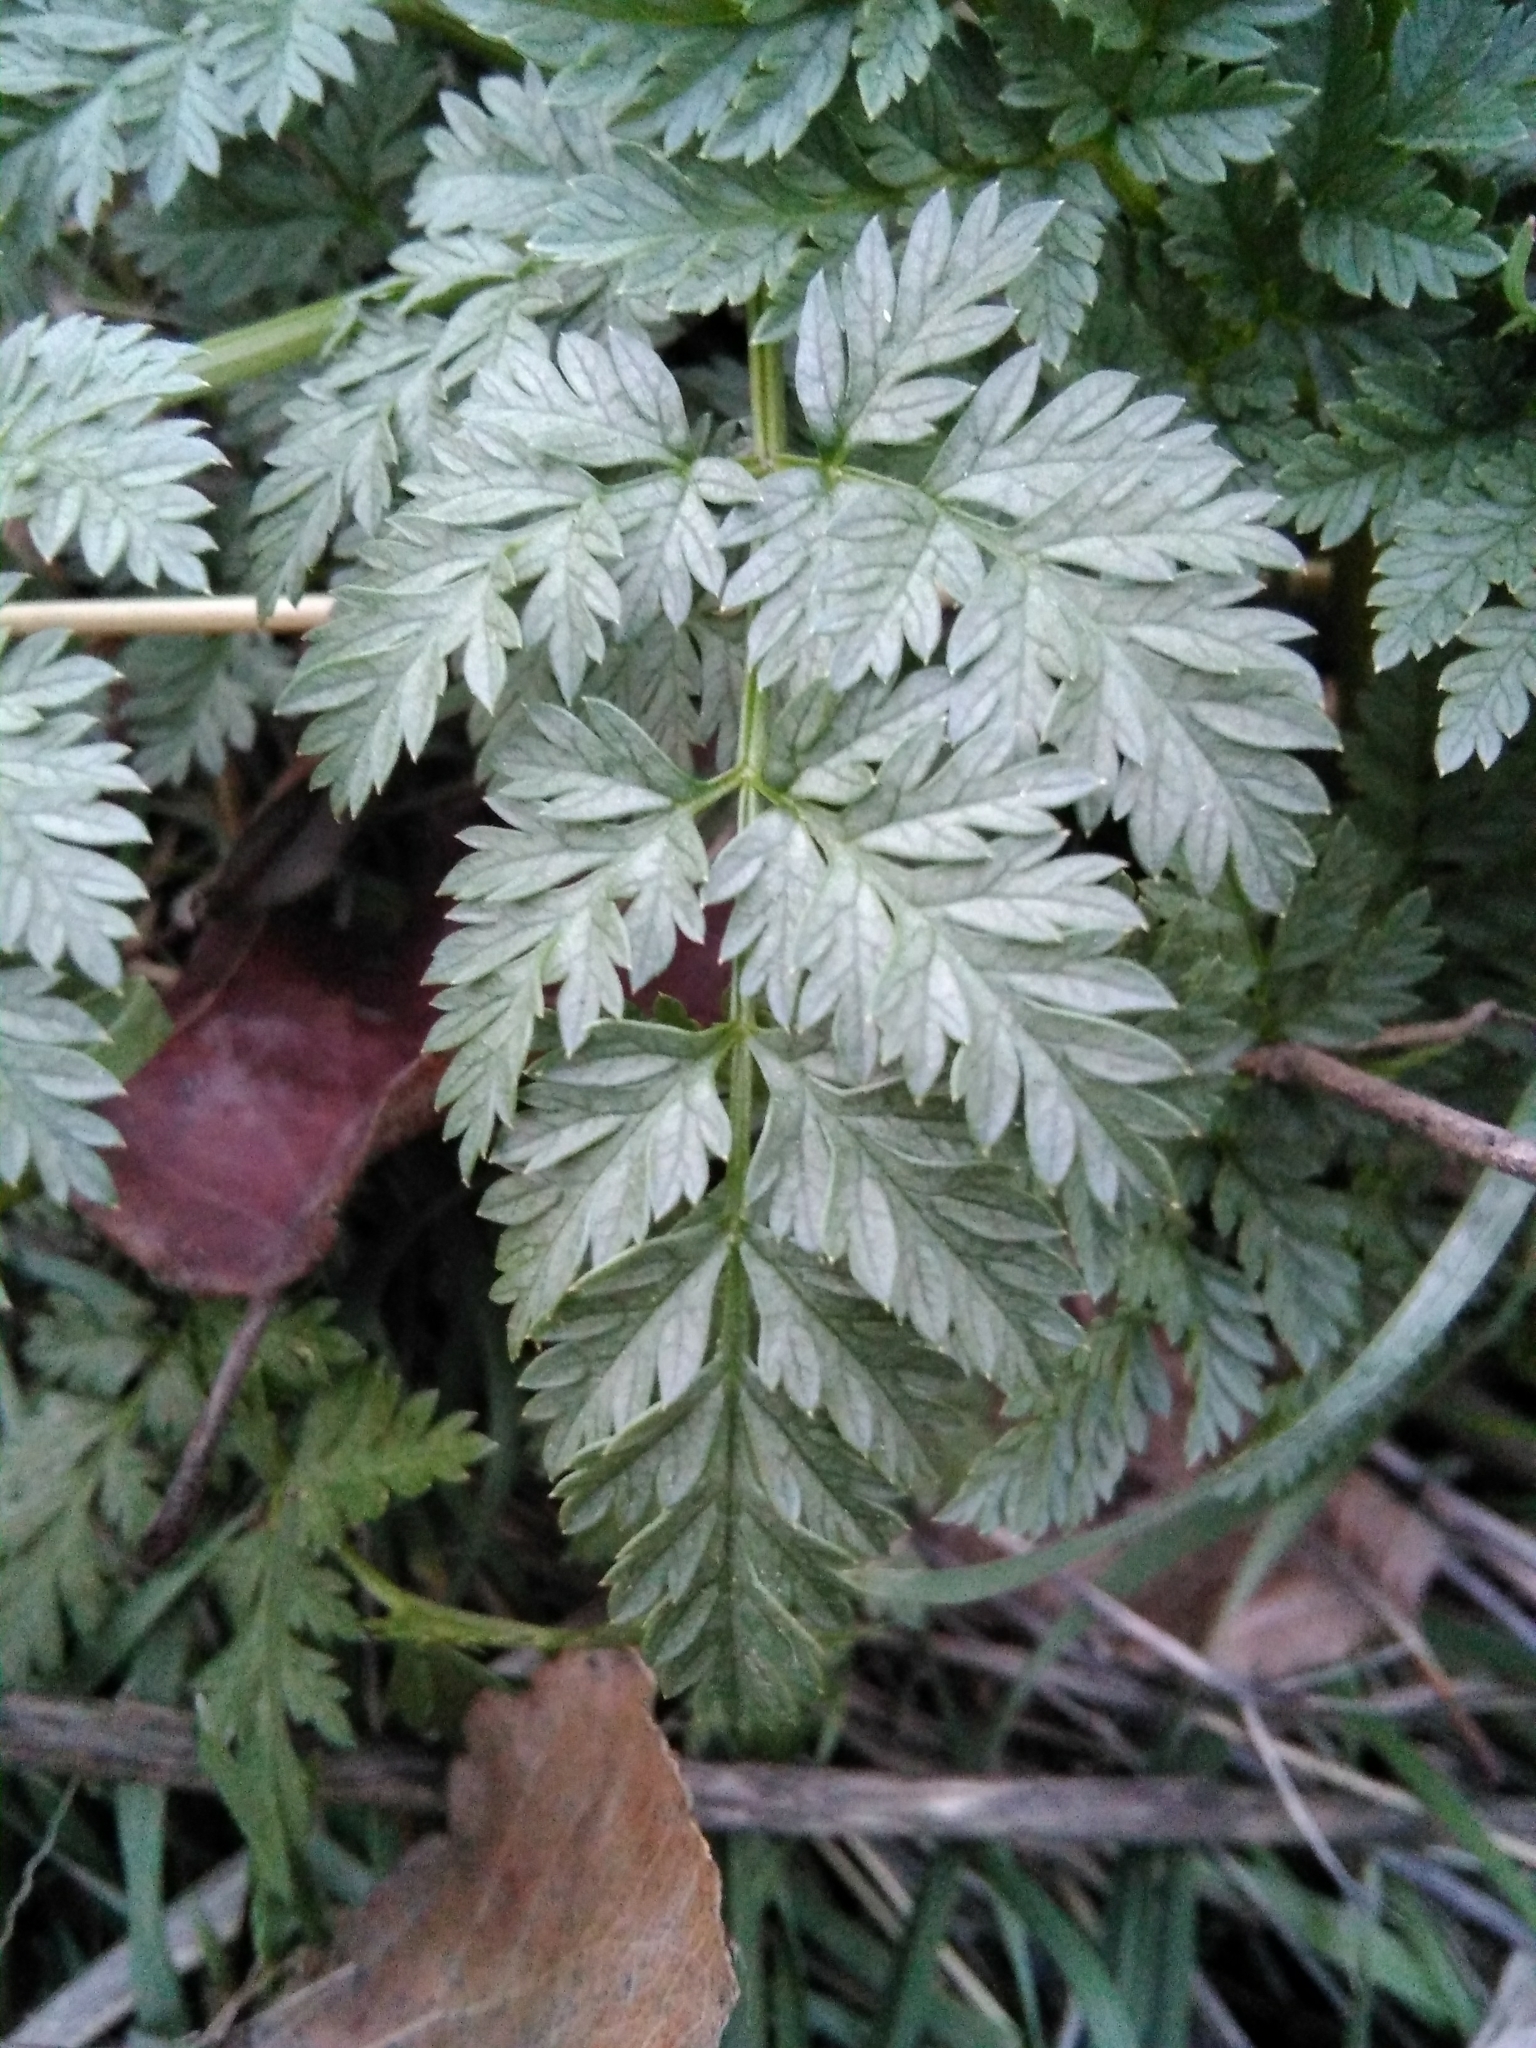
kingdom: Plantae
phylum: Tracheophyta
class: Magnoliopsida
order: Apiales
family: Apiaceae
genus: Conium
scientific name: Conium maculatum
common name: Hemlock
